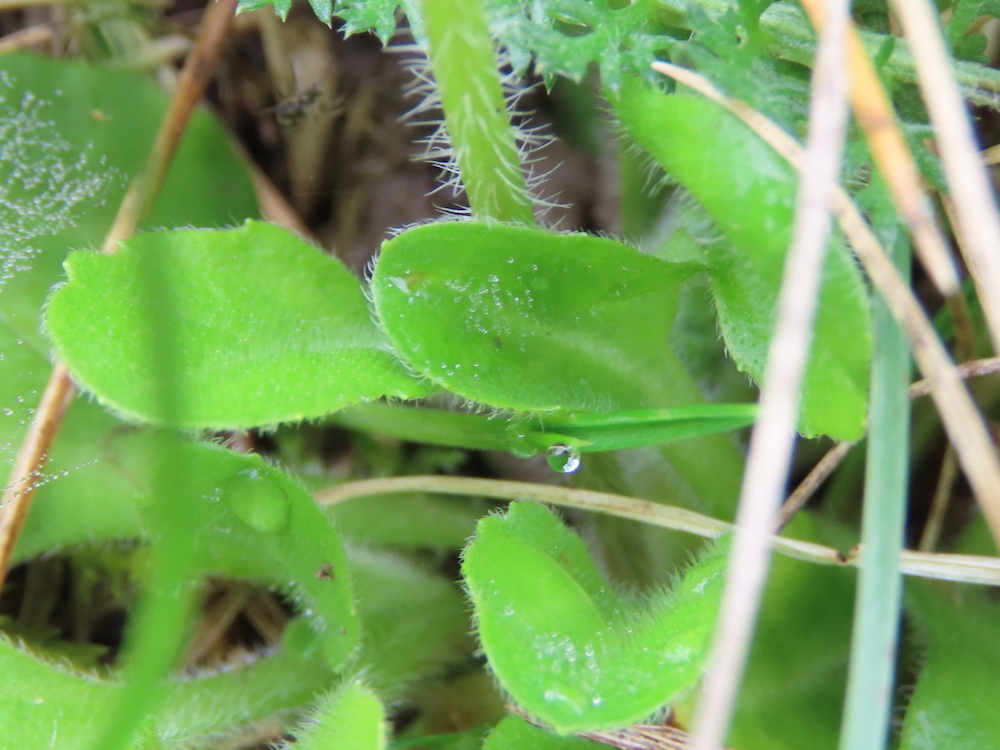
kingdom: Plantae
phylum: Tracheophyta
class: Magnoliopsida
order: Asterales
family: Asteraceae
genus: Bellis
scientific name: Bellis perennis
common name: Lawndaisy
